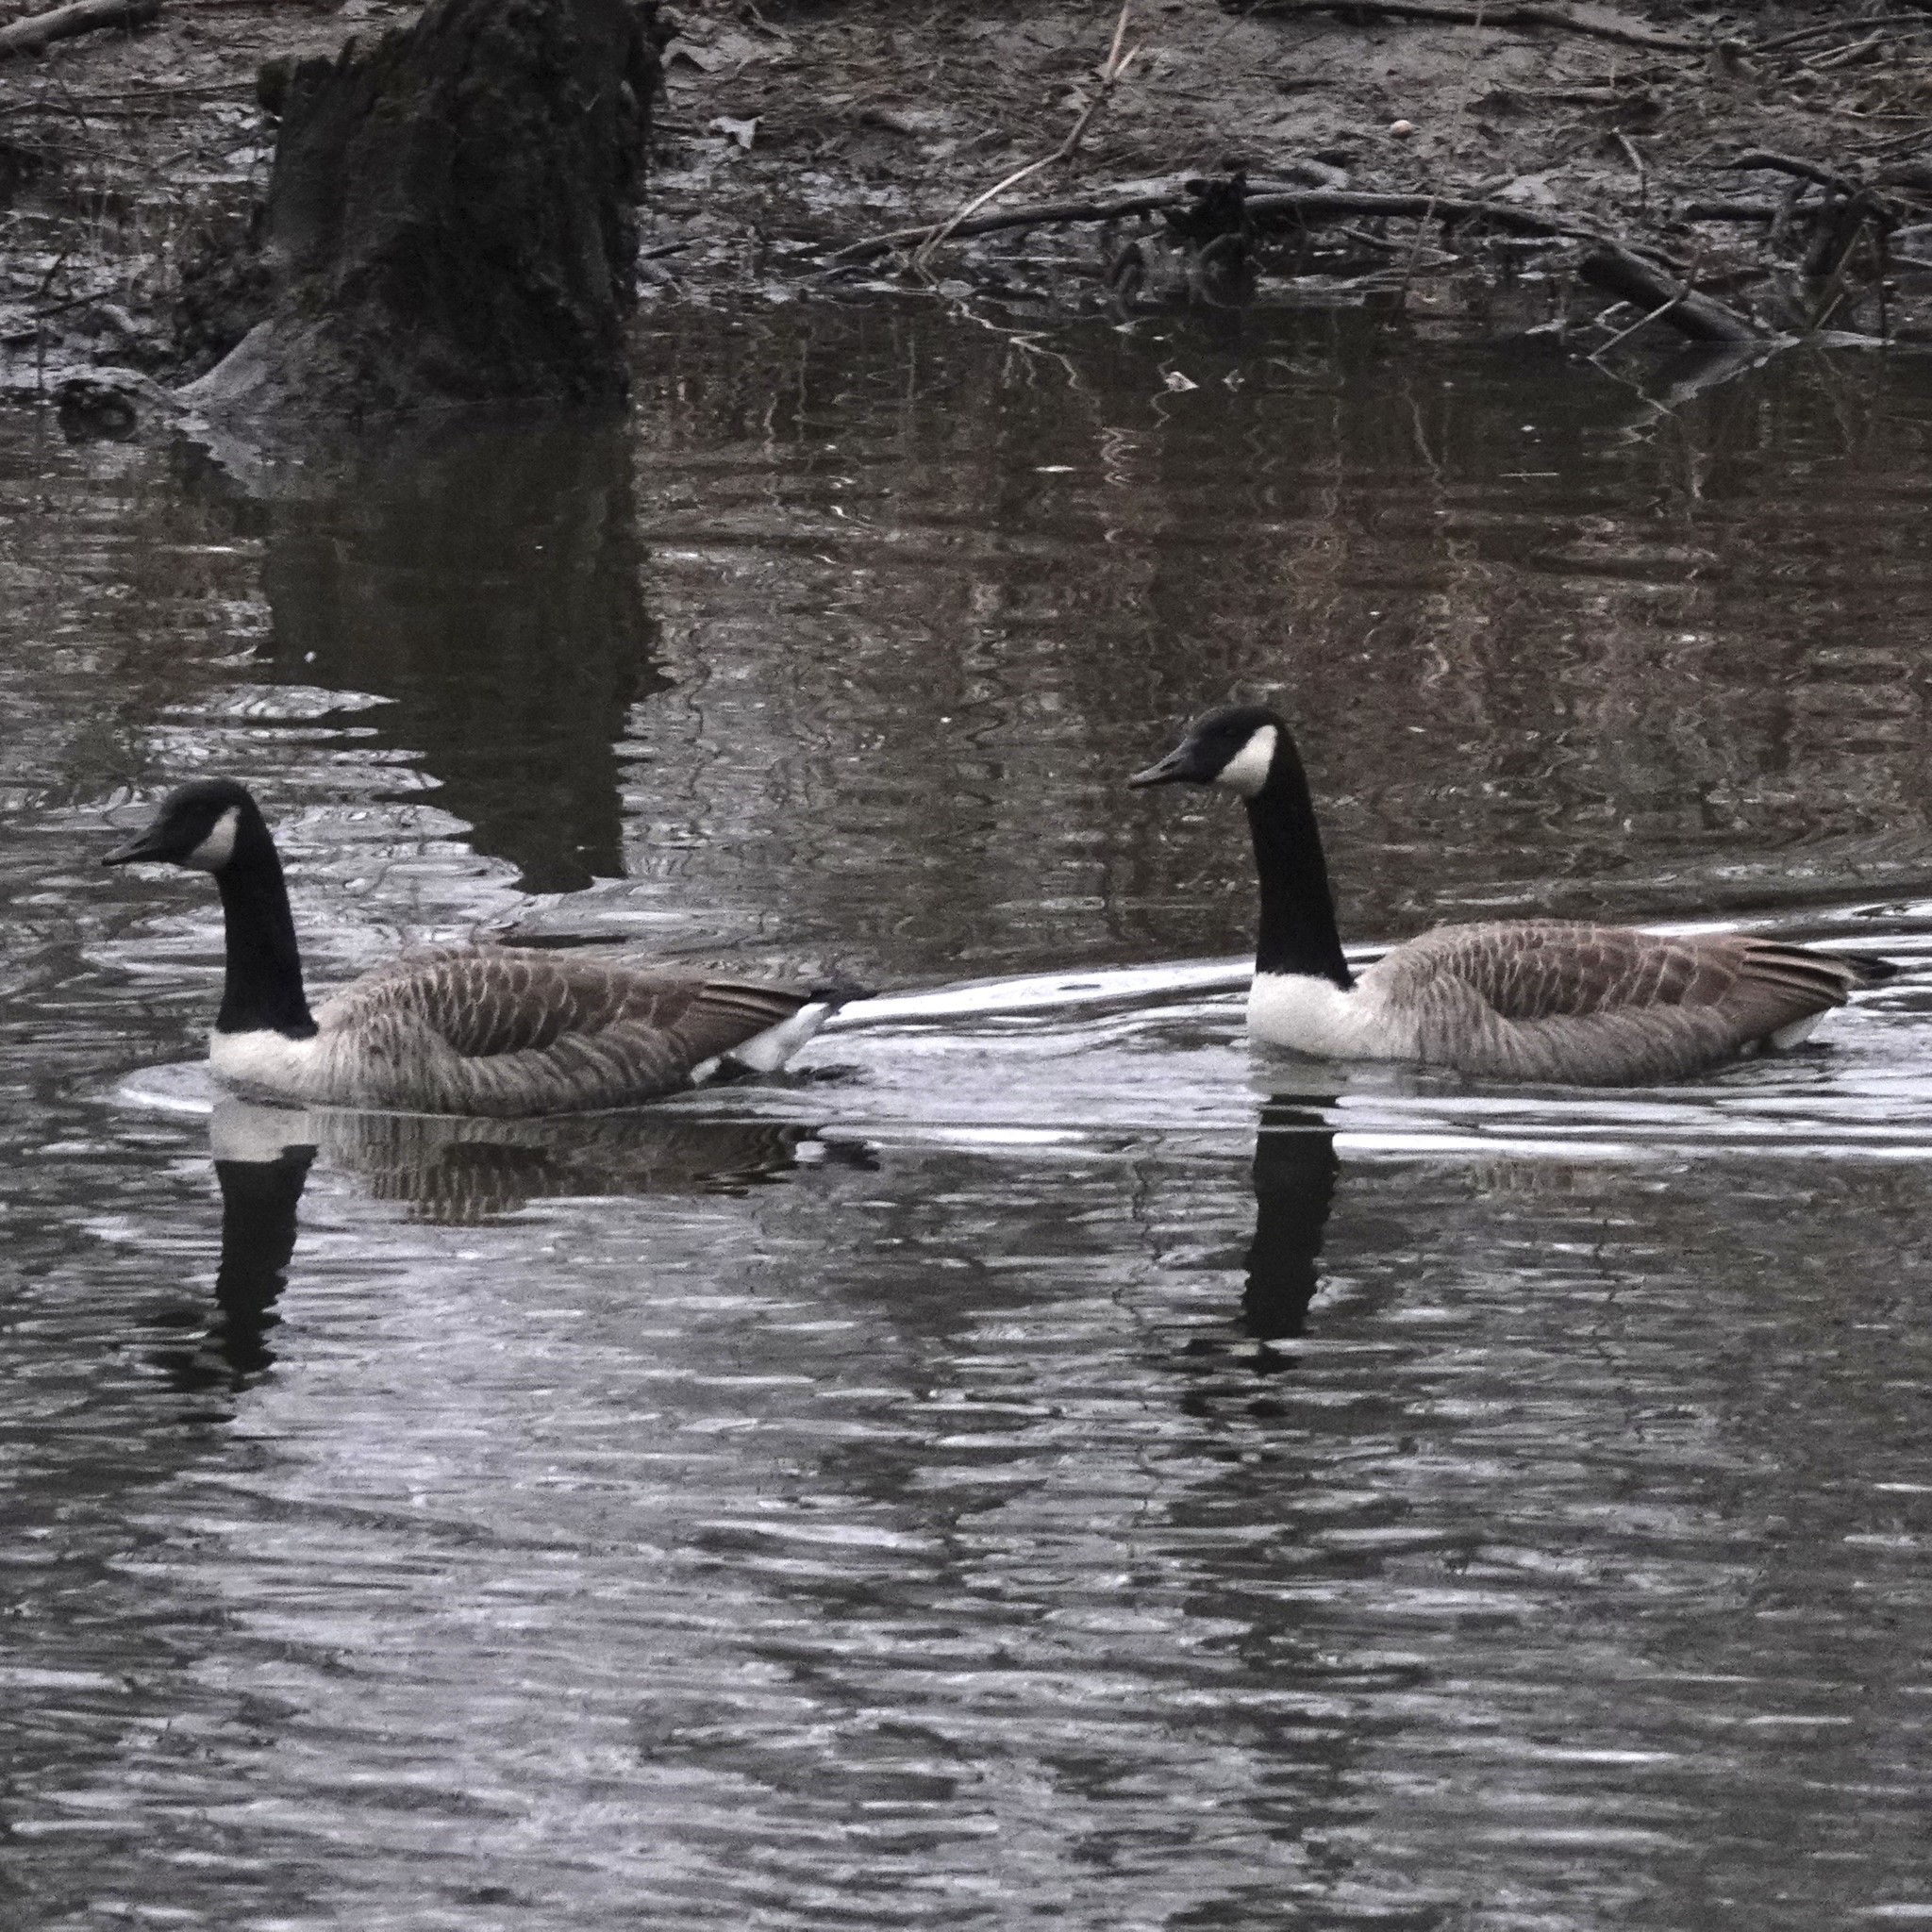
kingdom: Animalia
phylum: Chordata
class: Aves
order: Anseriformes
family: Anatidae
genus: Branta
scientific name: Branta canadensis
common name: Canada goose
